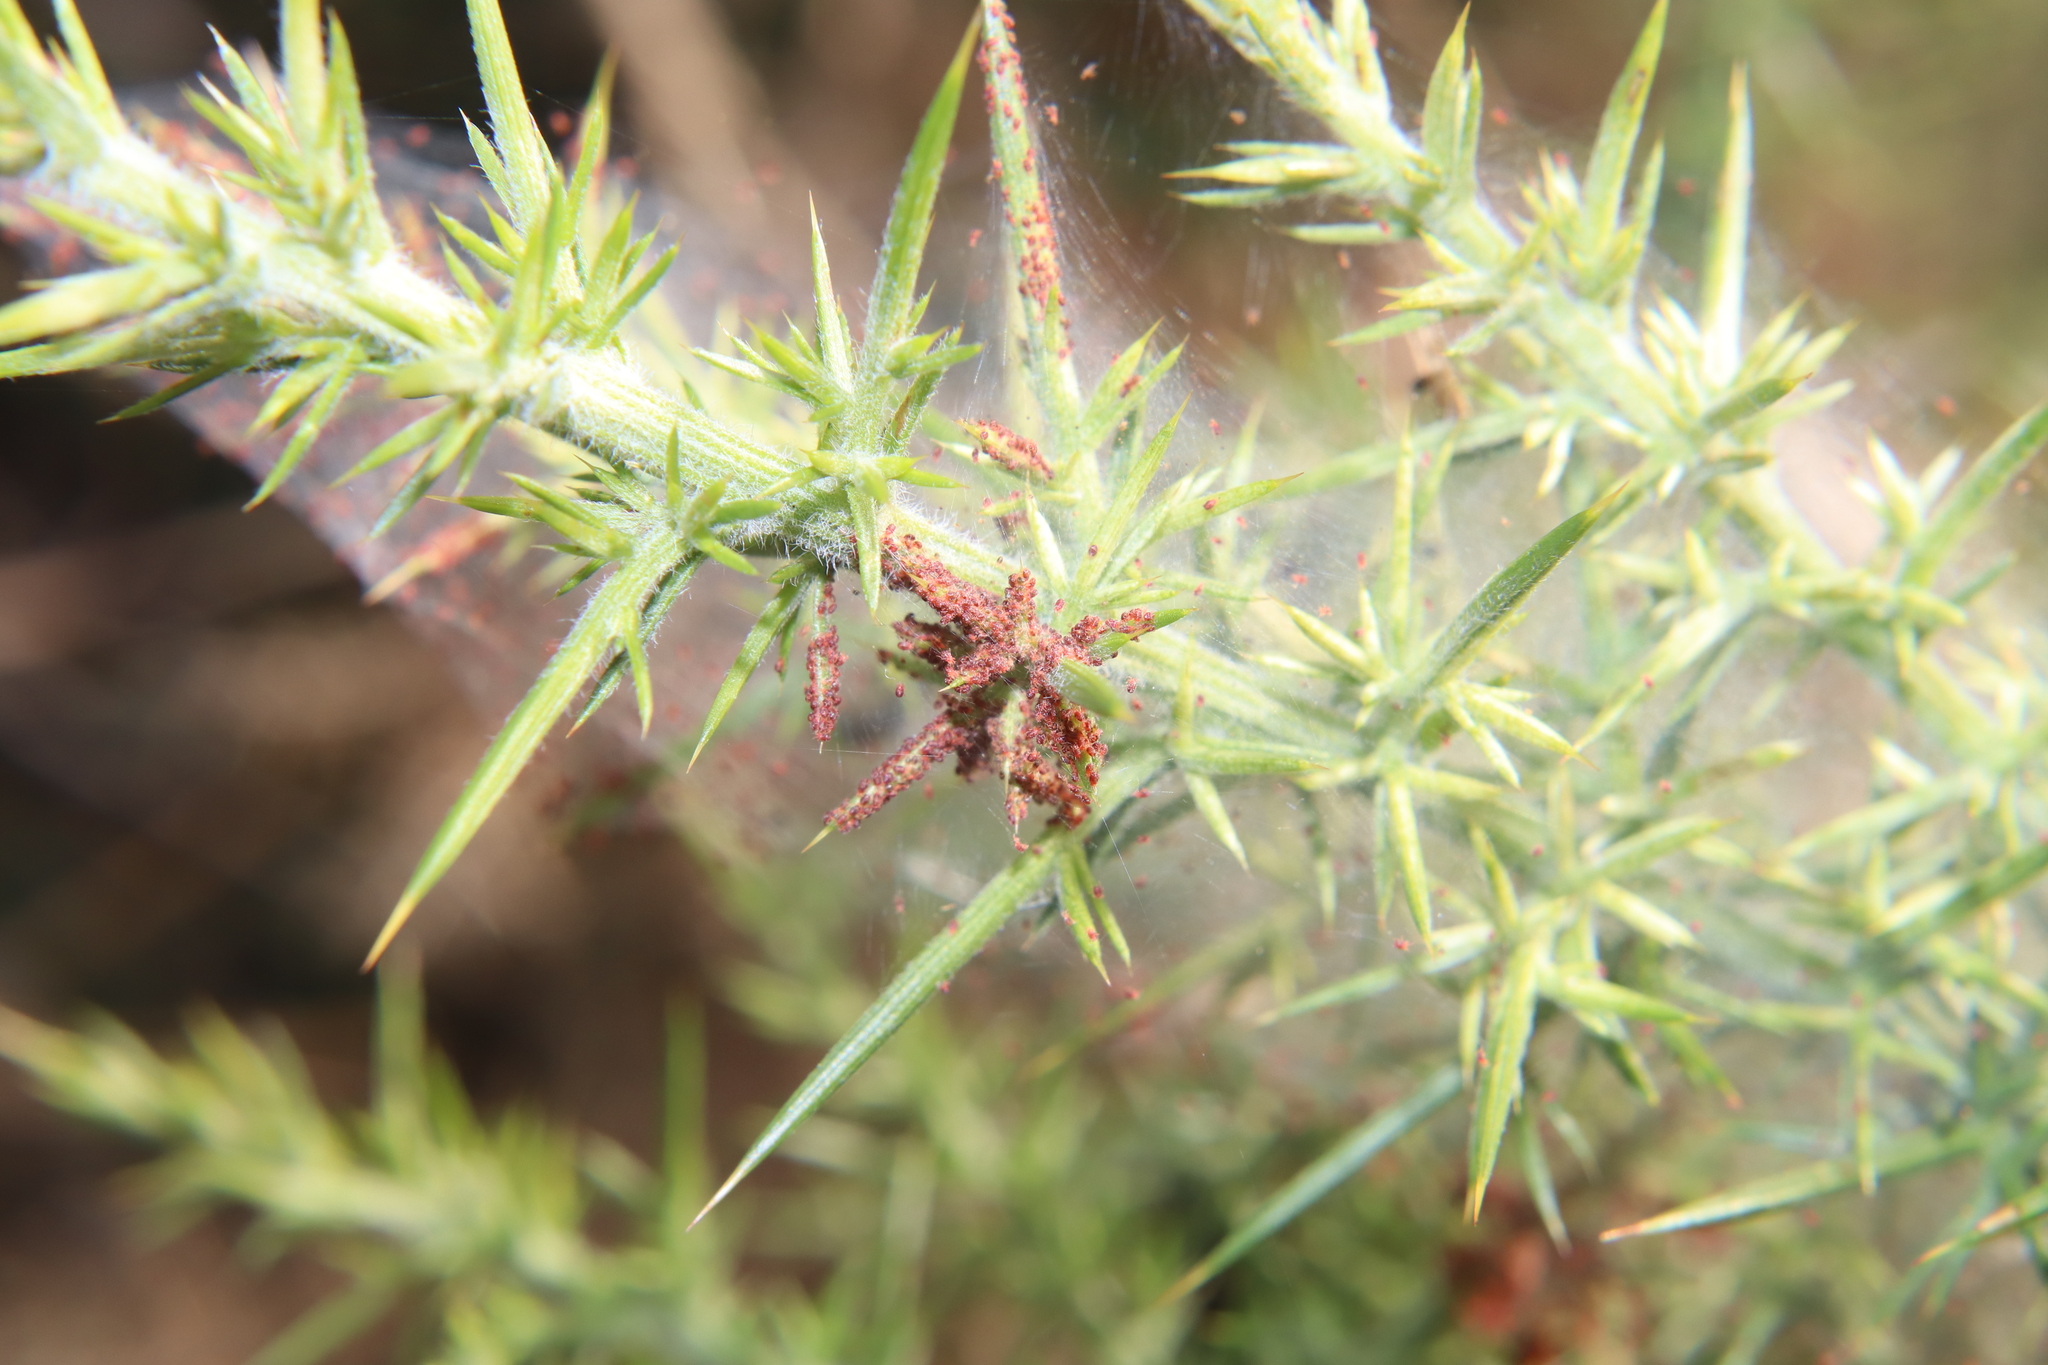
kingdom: Animalia
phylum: Arthropoda
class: Arachnida
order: Trombidiformes
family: Tetranychidae
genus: Tetranychus
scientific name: Tetranychus lintearius
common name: Gorse spider mite
